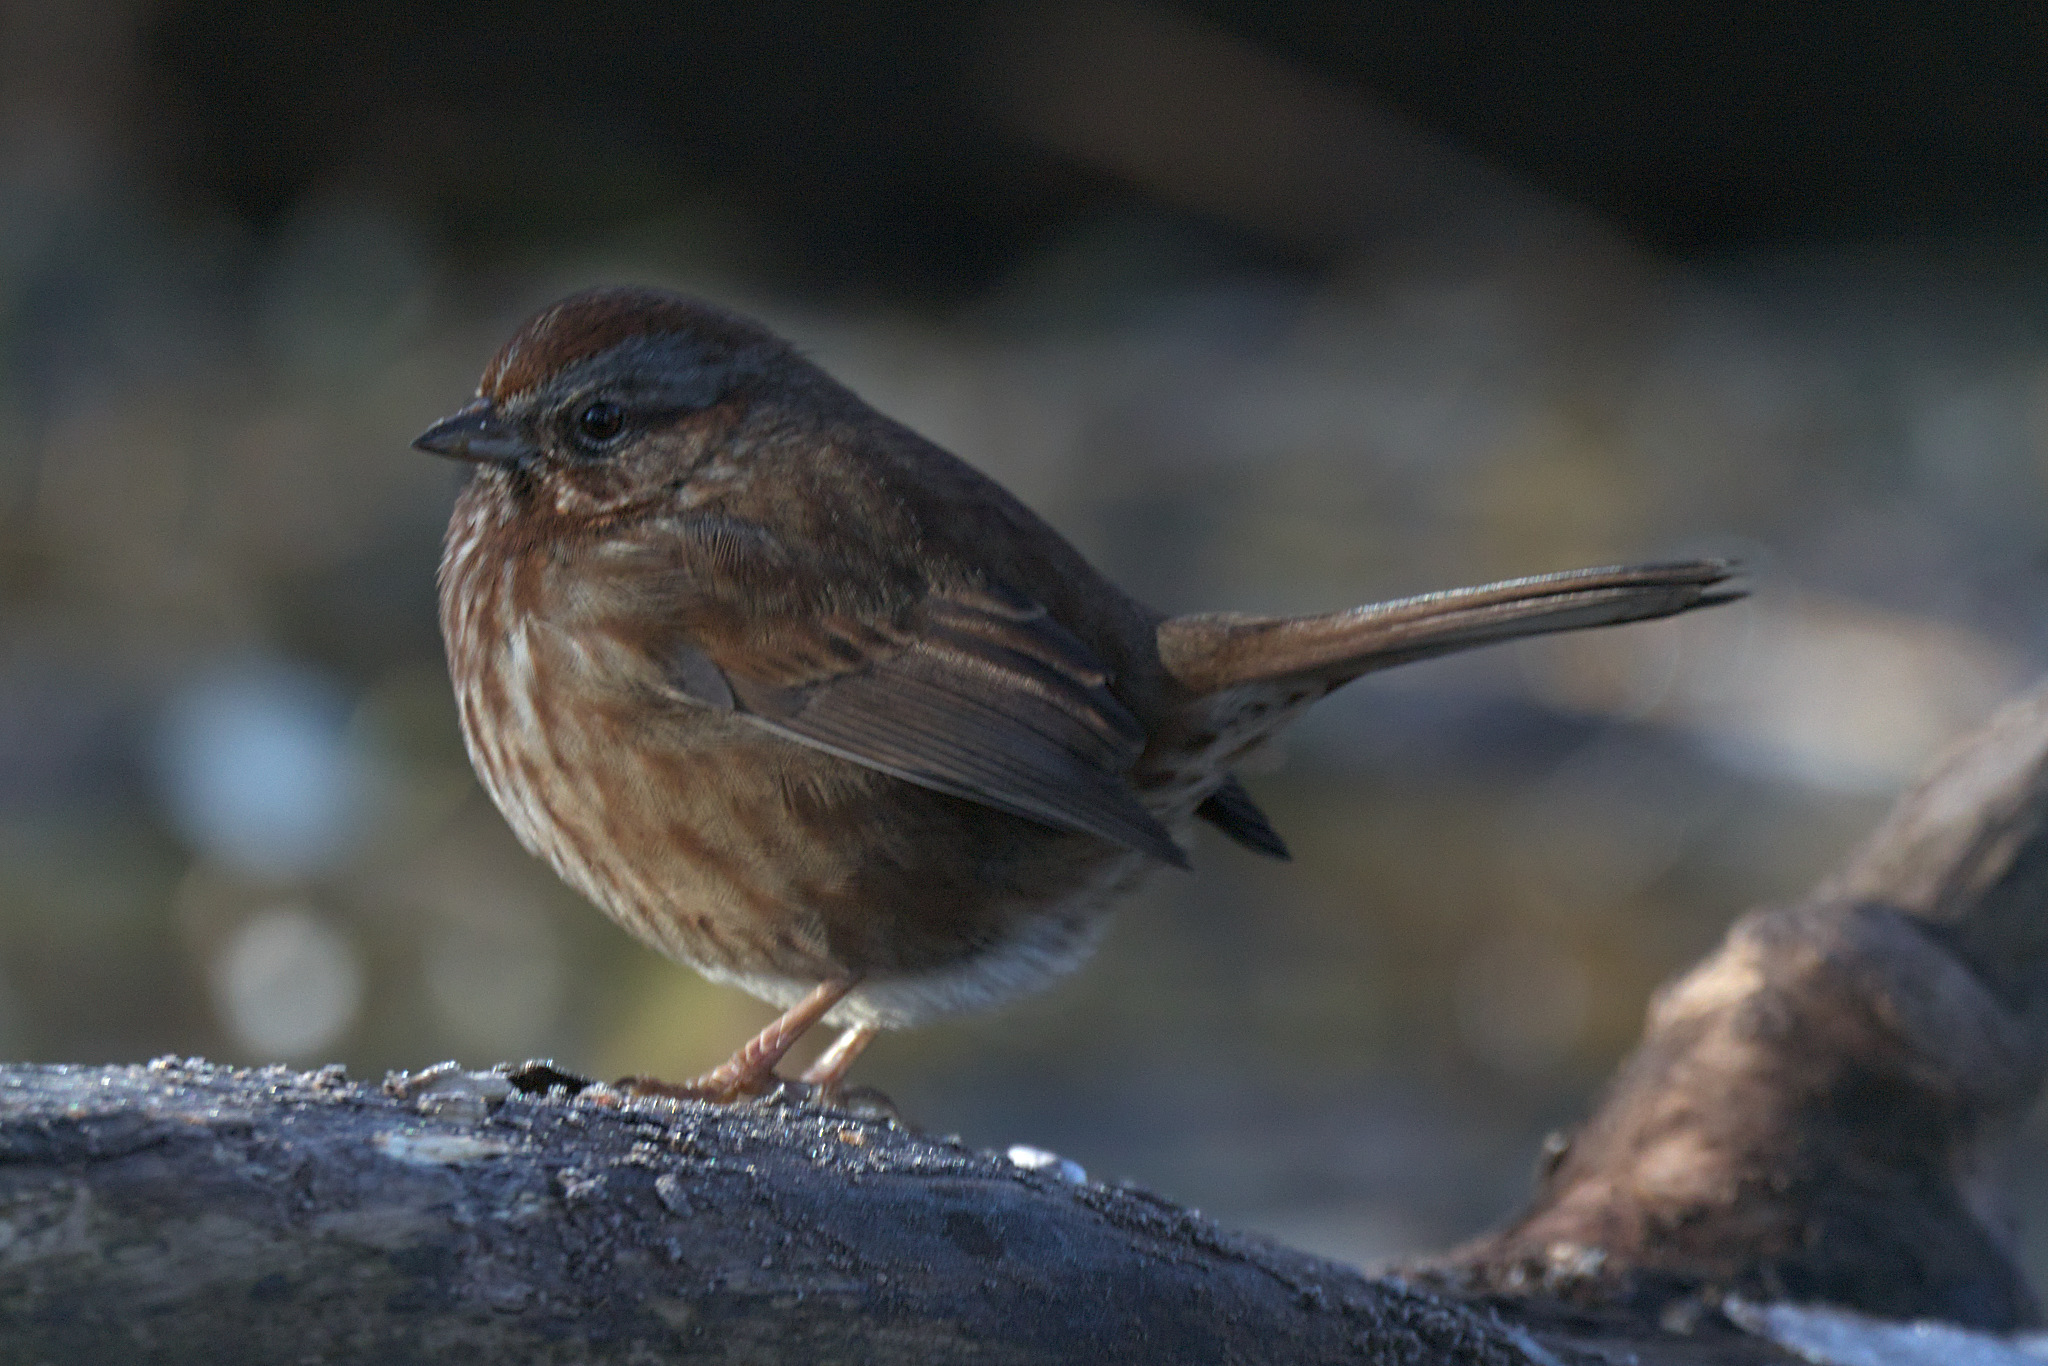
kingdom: Animalia
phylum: Chordata
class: Aves
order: Passeriformes
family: Passerellidae
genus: Melospiza
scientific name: Melospiza melodia
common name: Song sparrow
